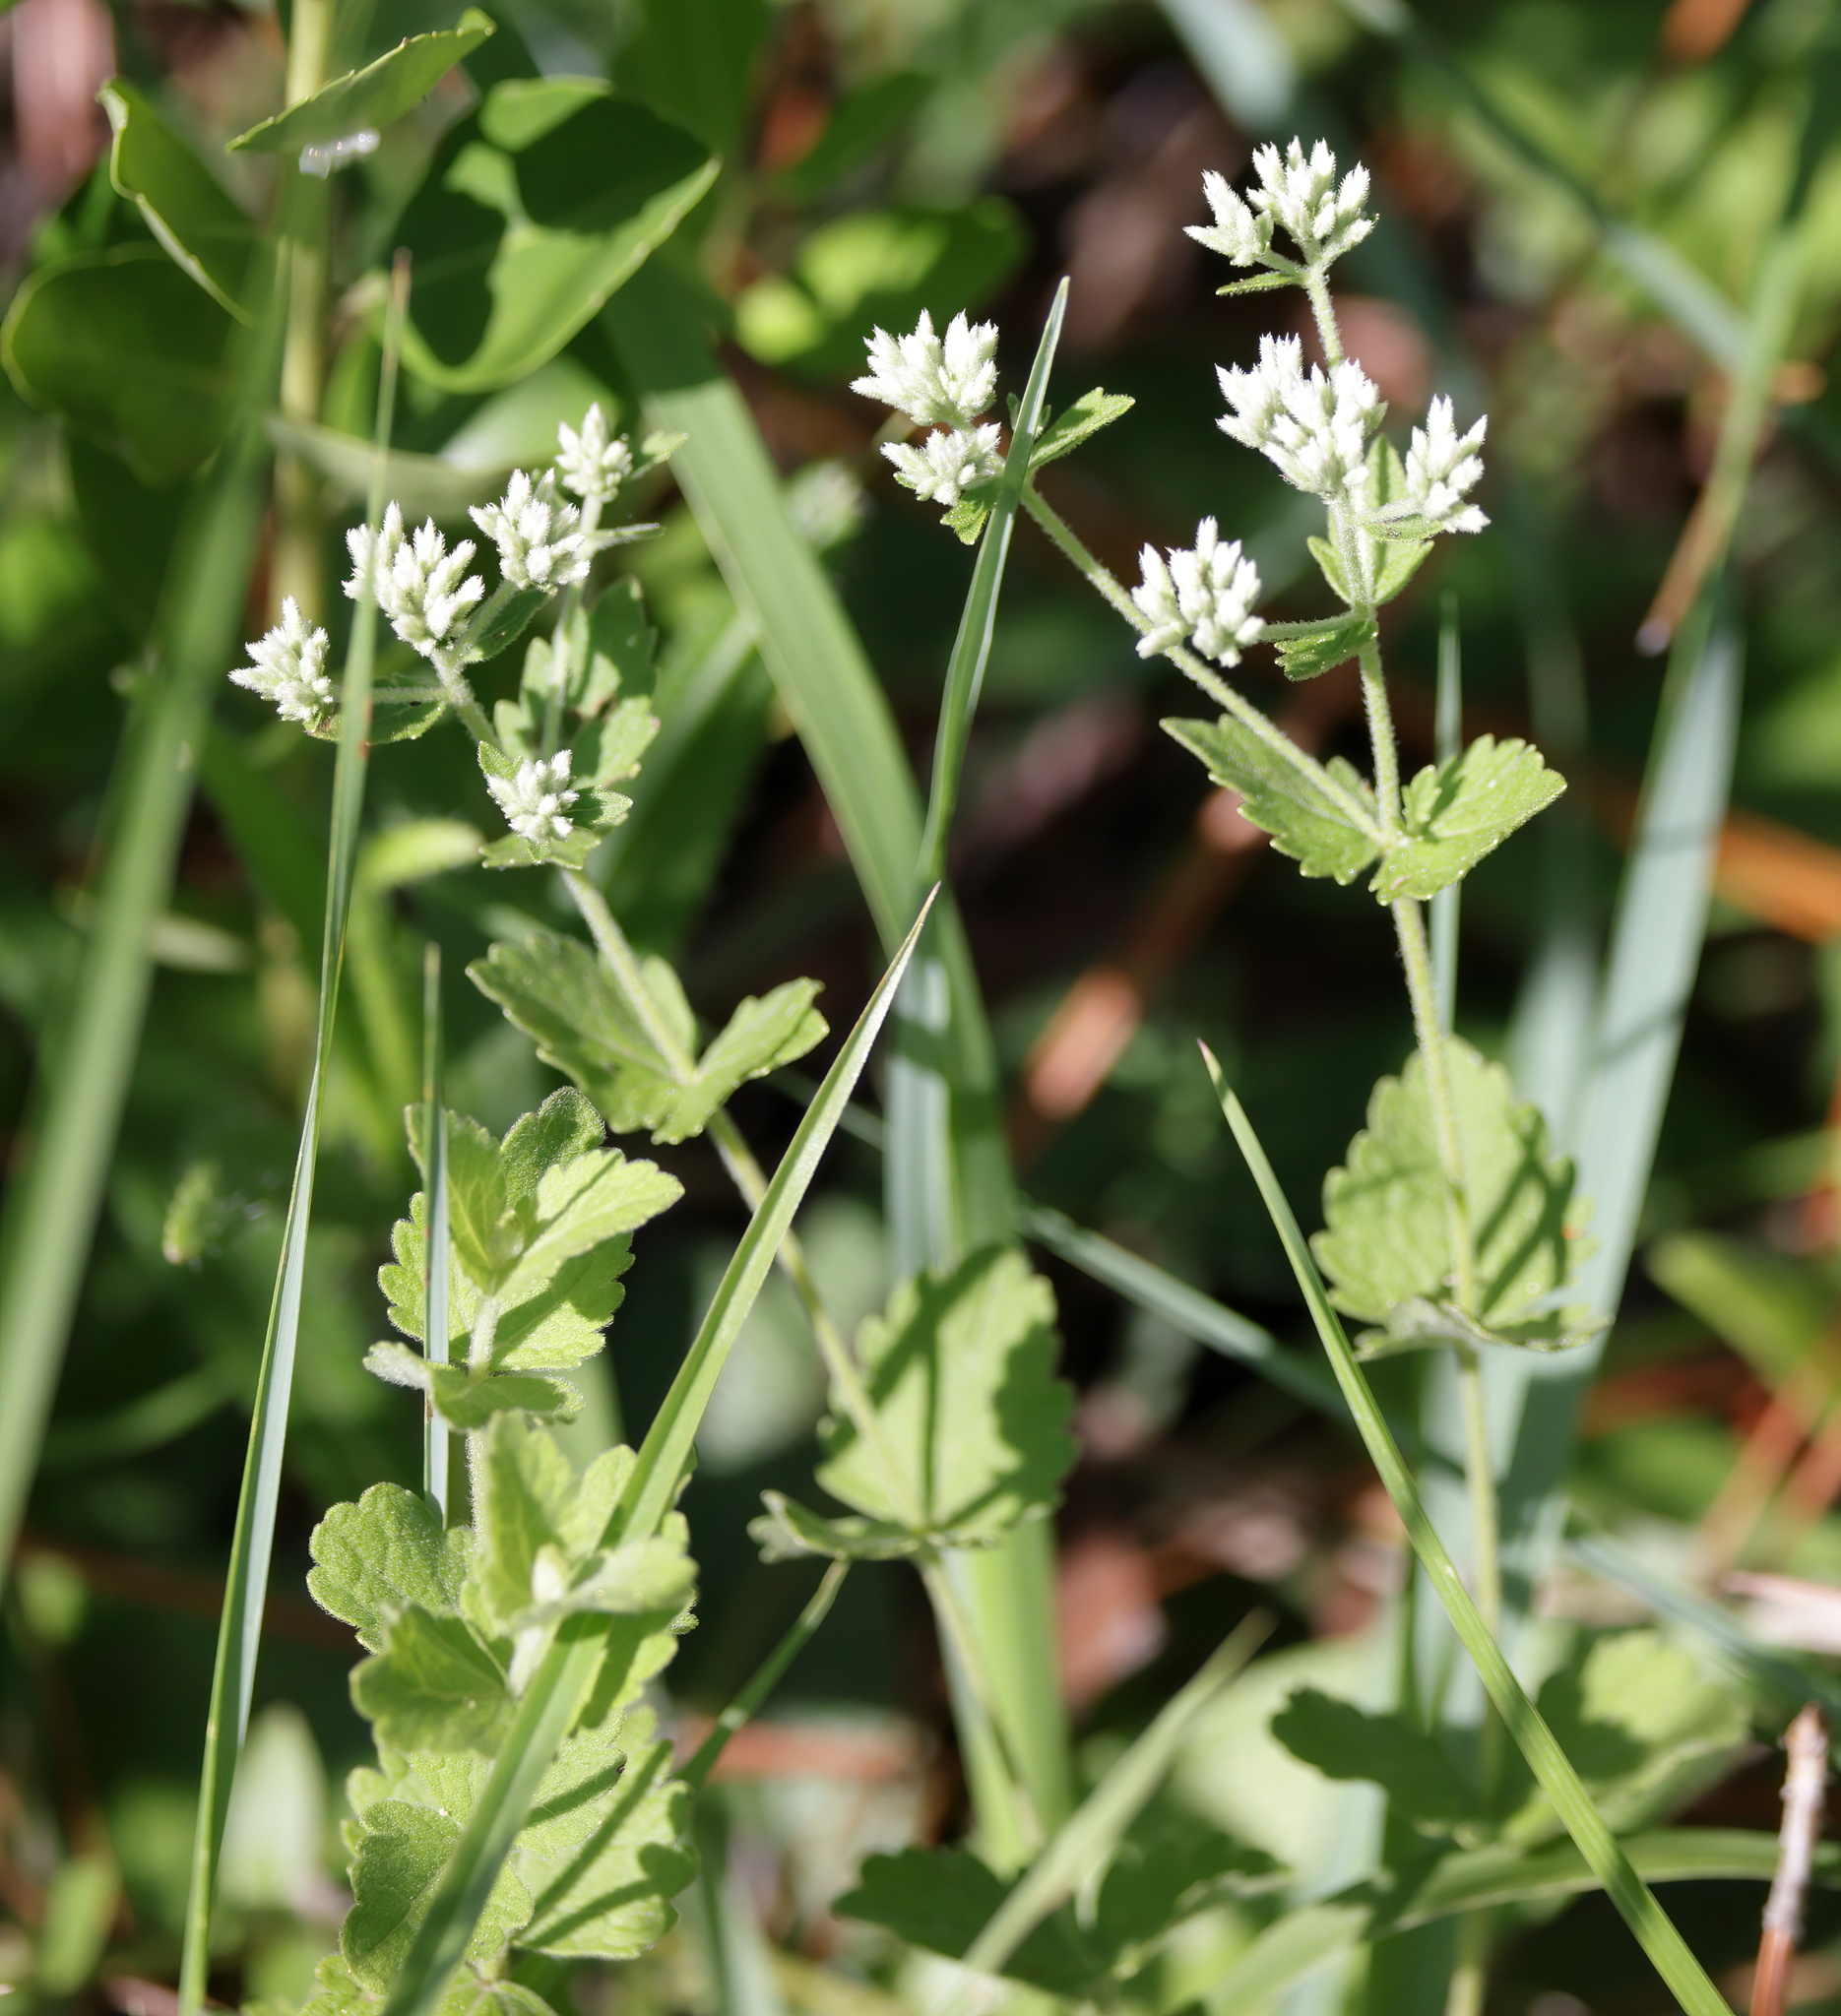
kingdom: Plantae
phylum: Tracheophyta
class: Magnoliopsida
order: Asterales
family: Asteraceae
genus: Eupatorium
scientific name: Eupatorium rotundifolium
